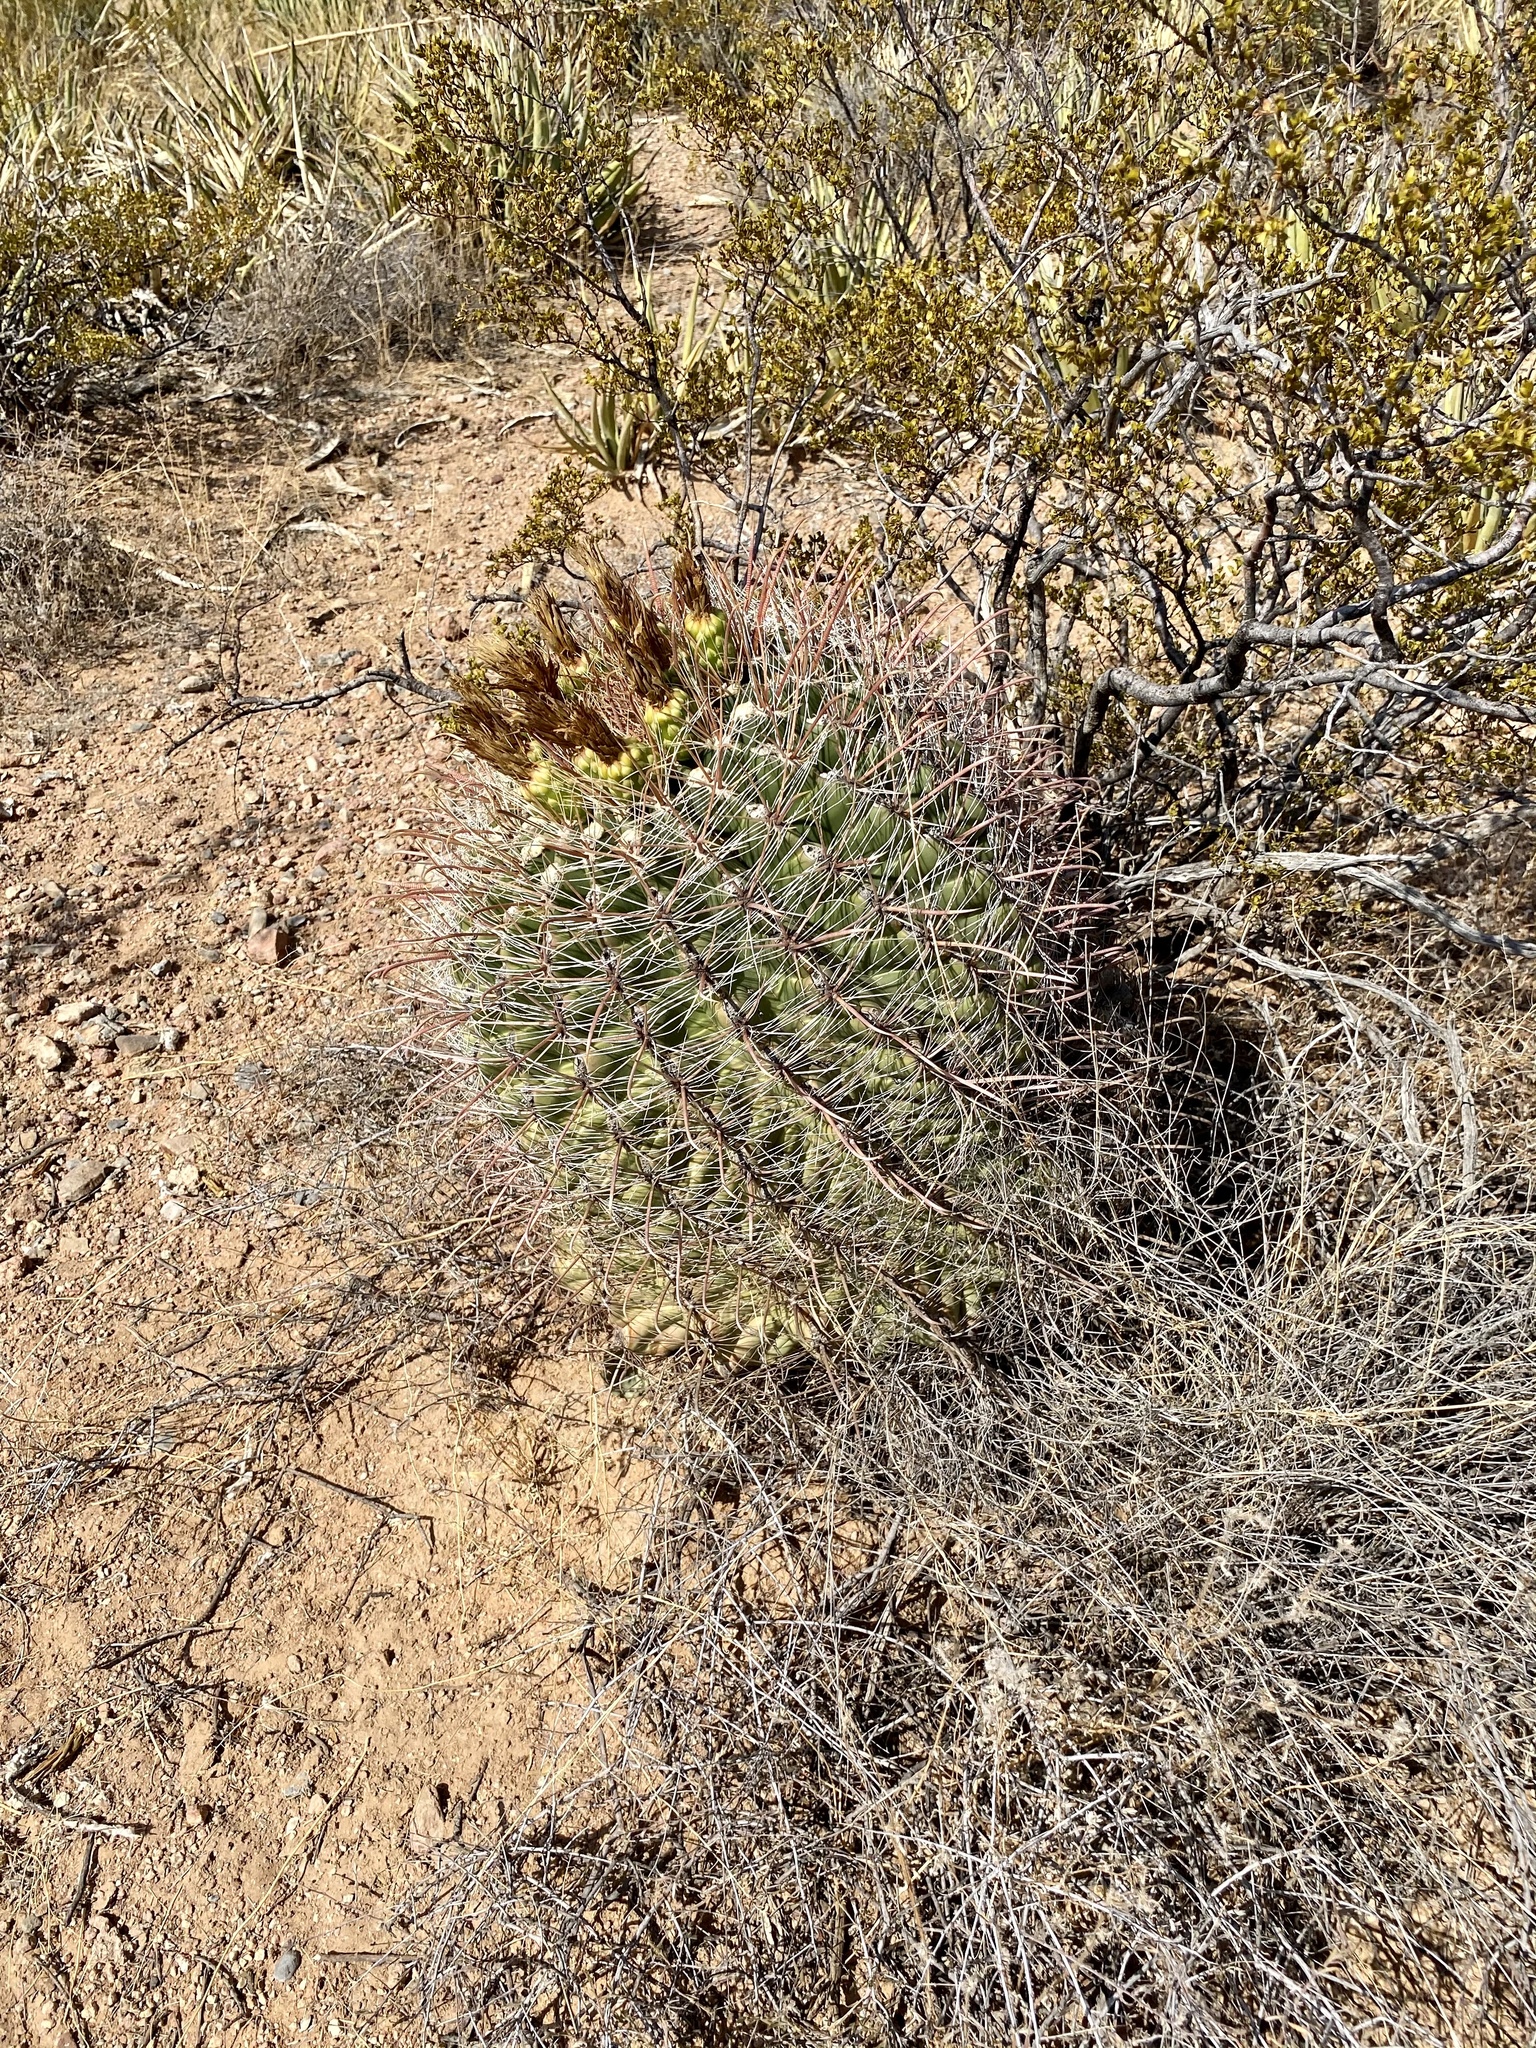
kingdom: Plantae
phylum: Tracheophyta
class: Magnoliopsida
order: Caryophyllales
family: Cactaceae
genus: Ferocactus
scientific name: Ferocactus wislizeni
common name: Candy barrel cactus
